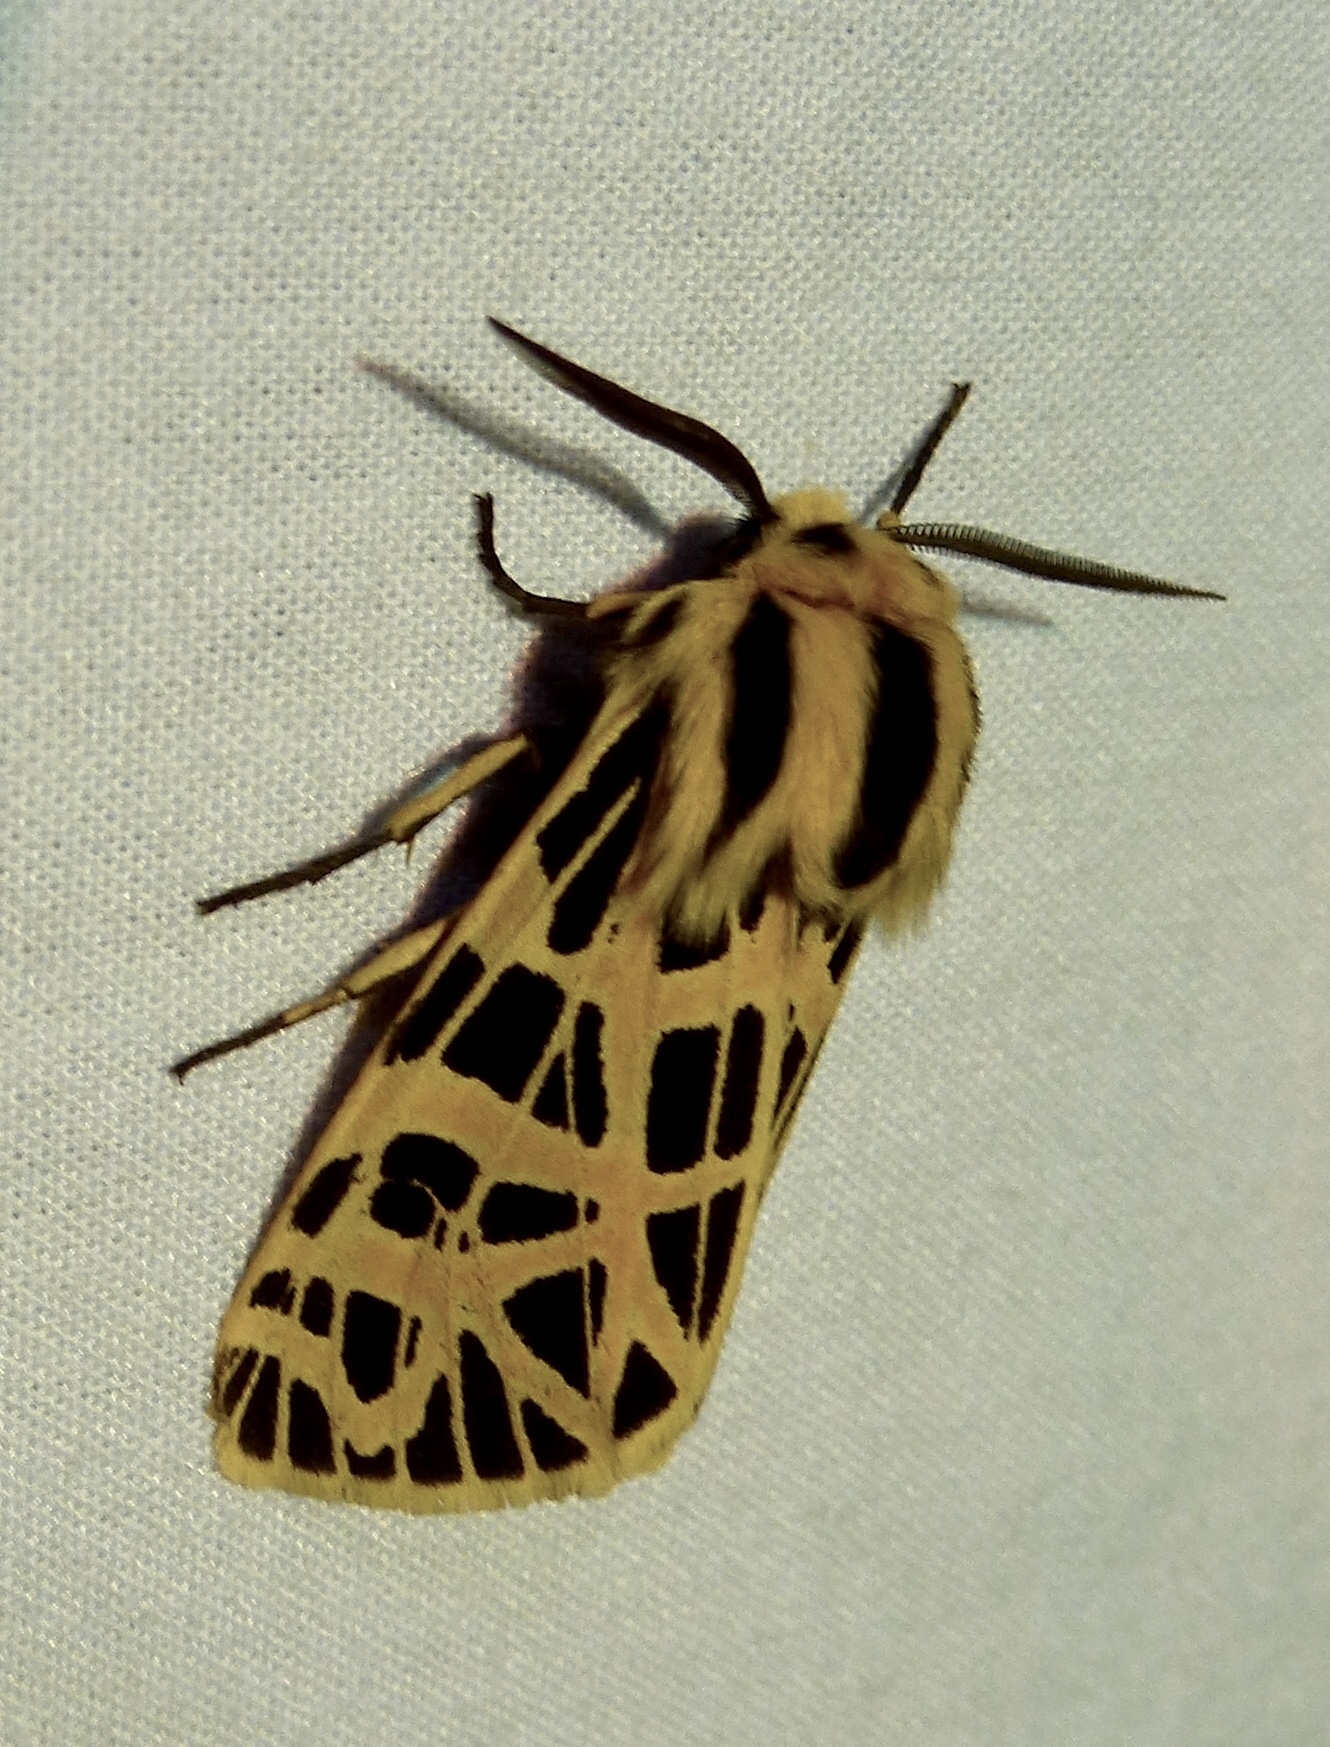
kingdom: Animalia
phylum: Arthropoda
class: Insecta
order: Lepidoptera
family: Erebidae
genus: Apantesis
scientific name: Apantesis
